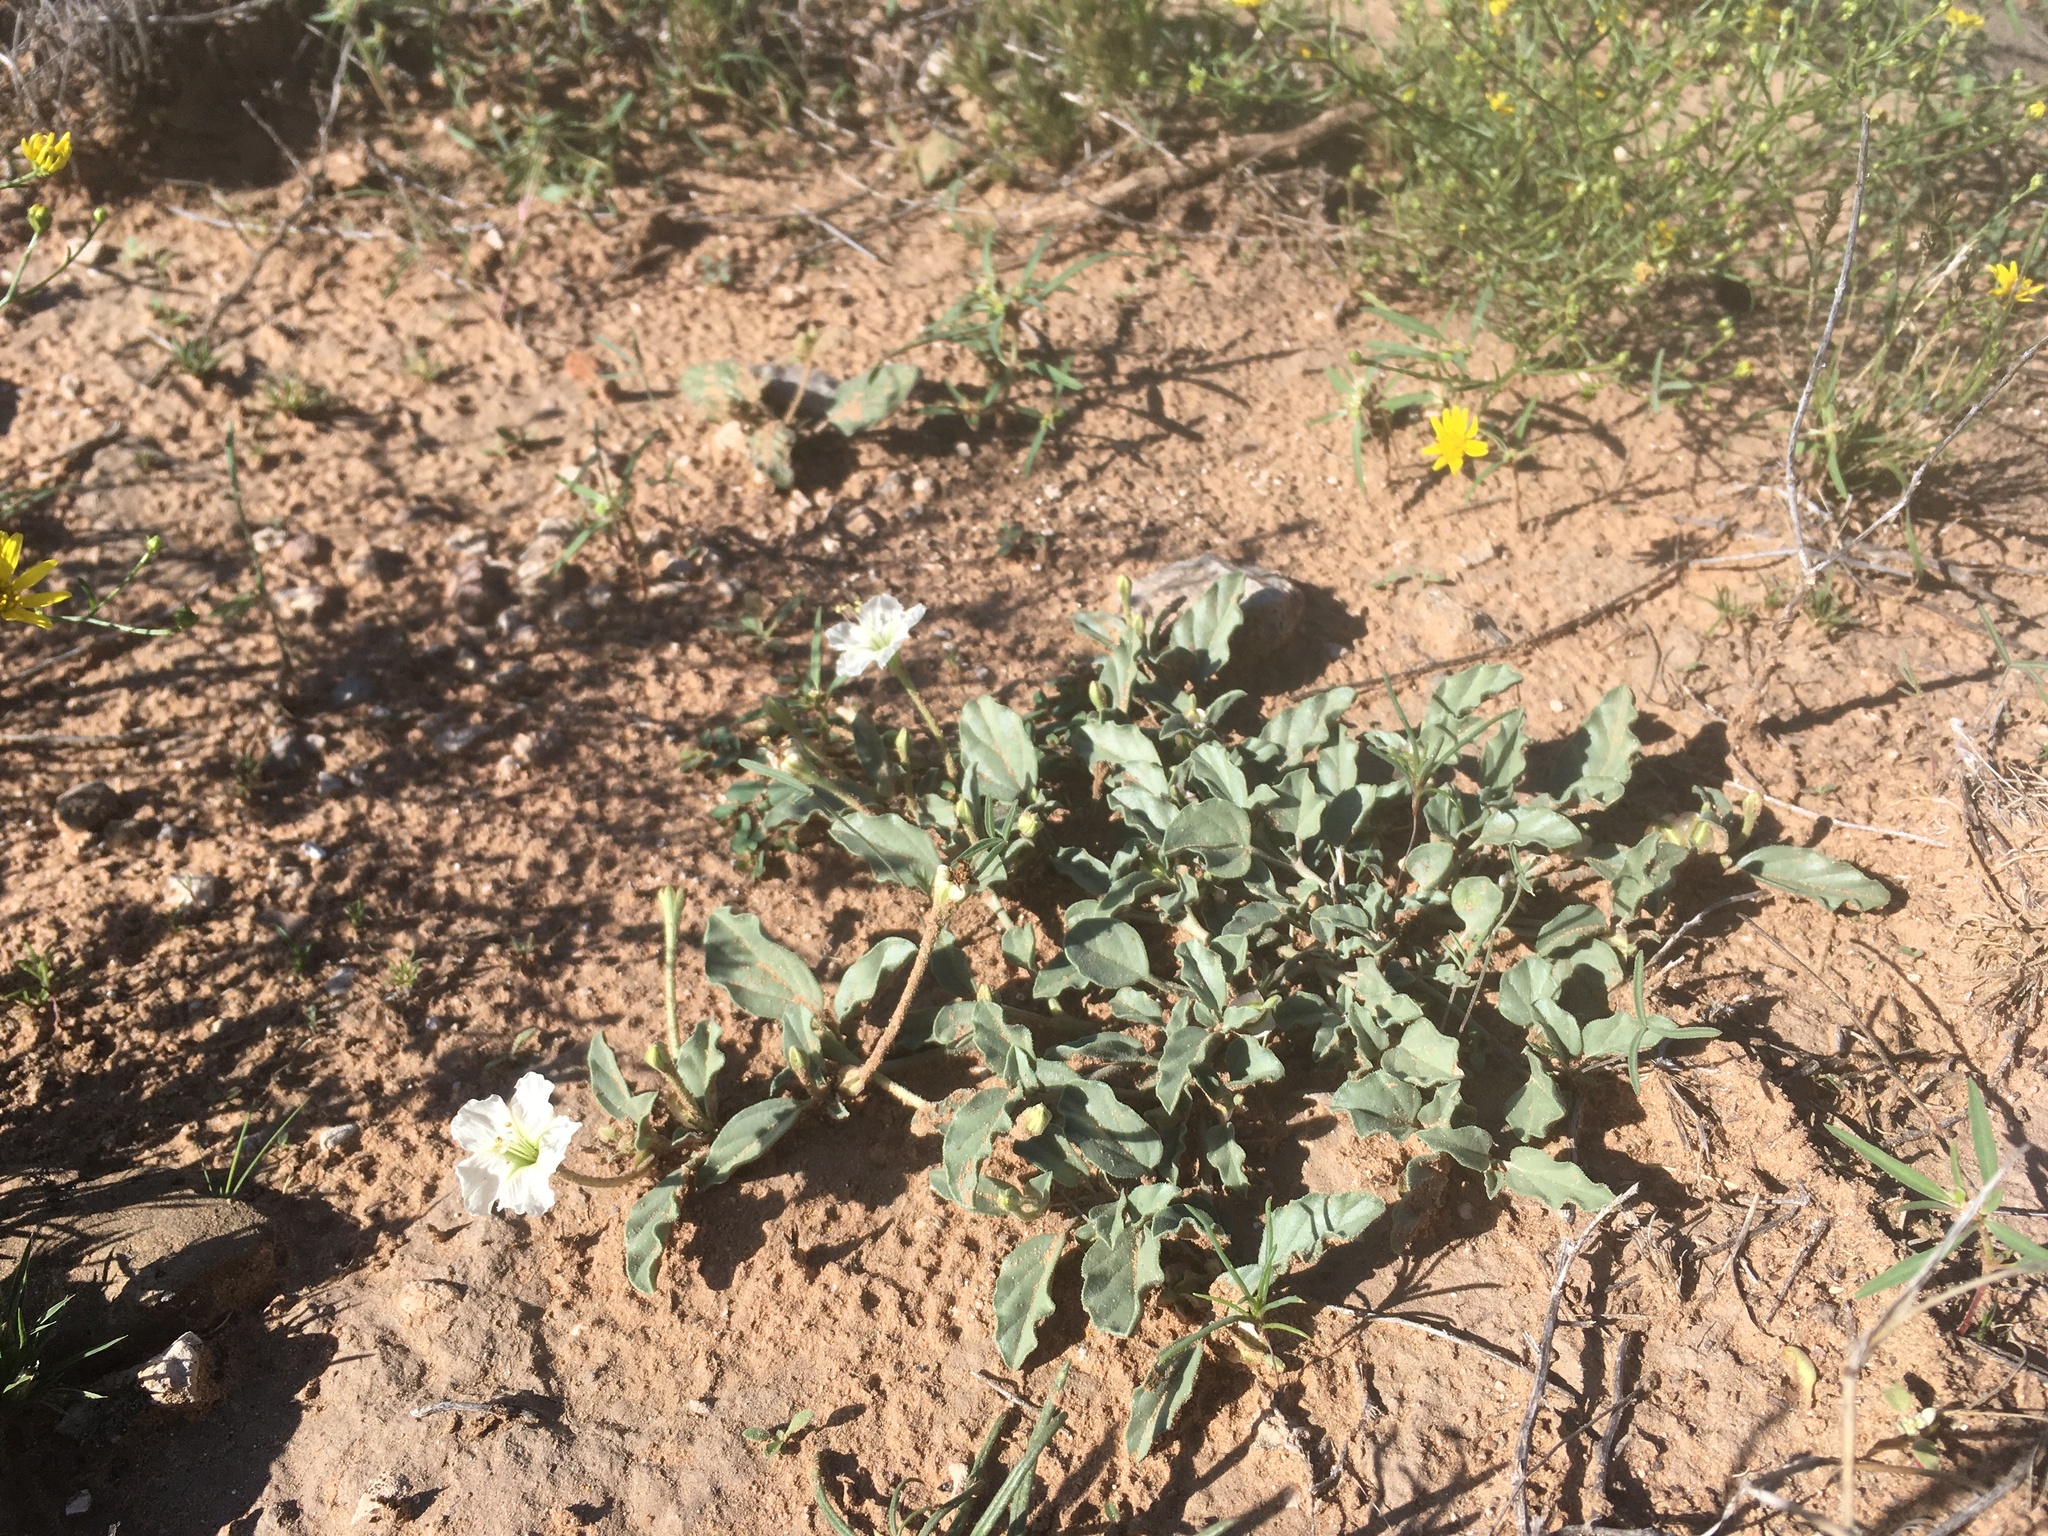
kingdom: Plantae
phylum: Tracheophyta
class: Magnoliopsida
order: Caryophyllales
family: Nyctaginaceae
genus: Acleisanthes
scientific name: Acleisanthes diffusa
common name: Spreading moonpod
